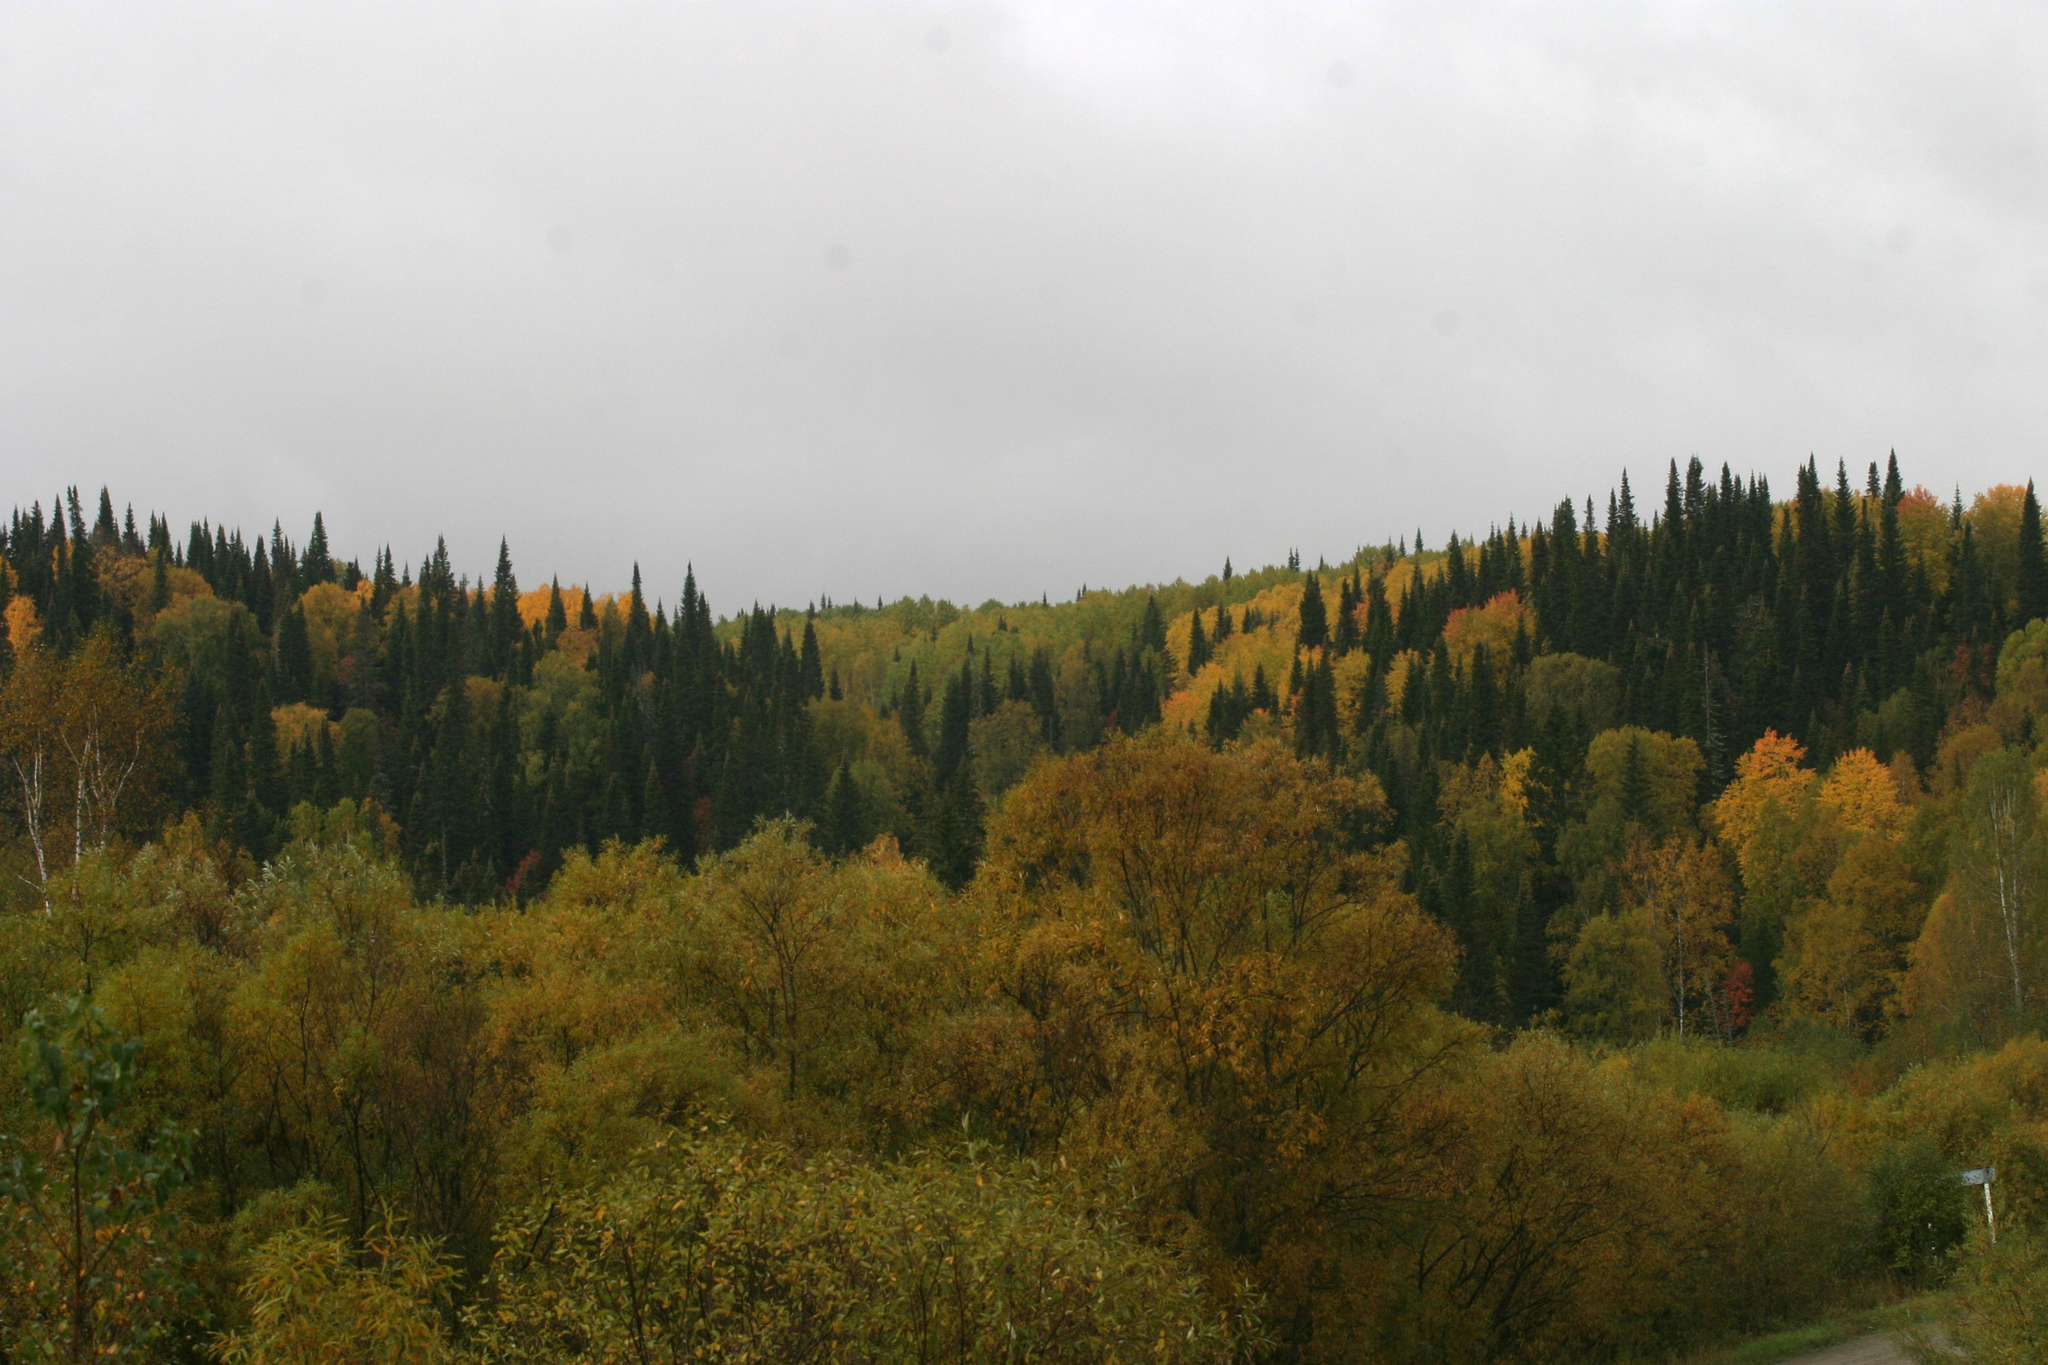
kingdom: Plantae
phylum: Tracheophyta
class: Pinopsida
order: Pinales
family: Pinaceae
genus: Abies
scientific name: Abies sibirica
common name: Siberian fir
